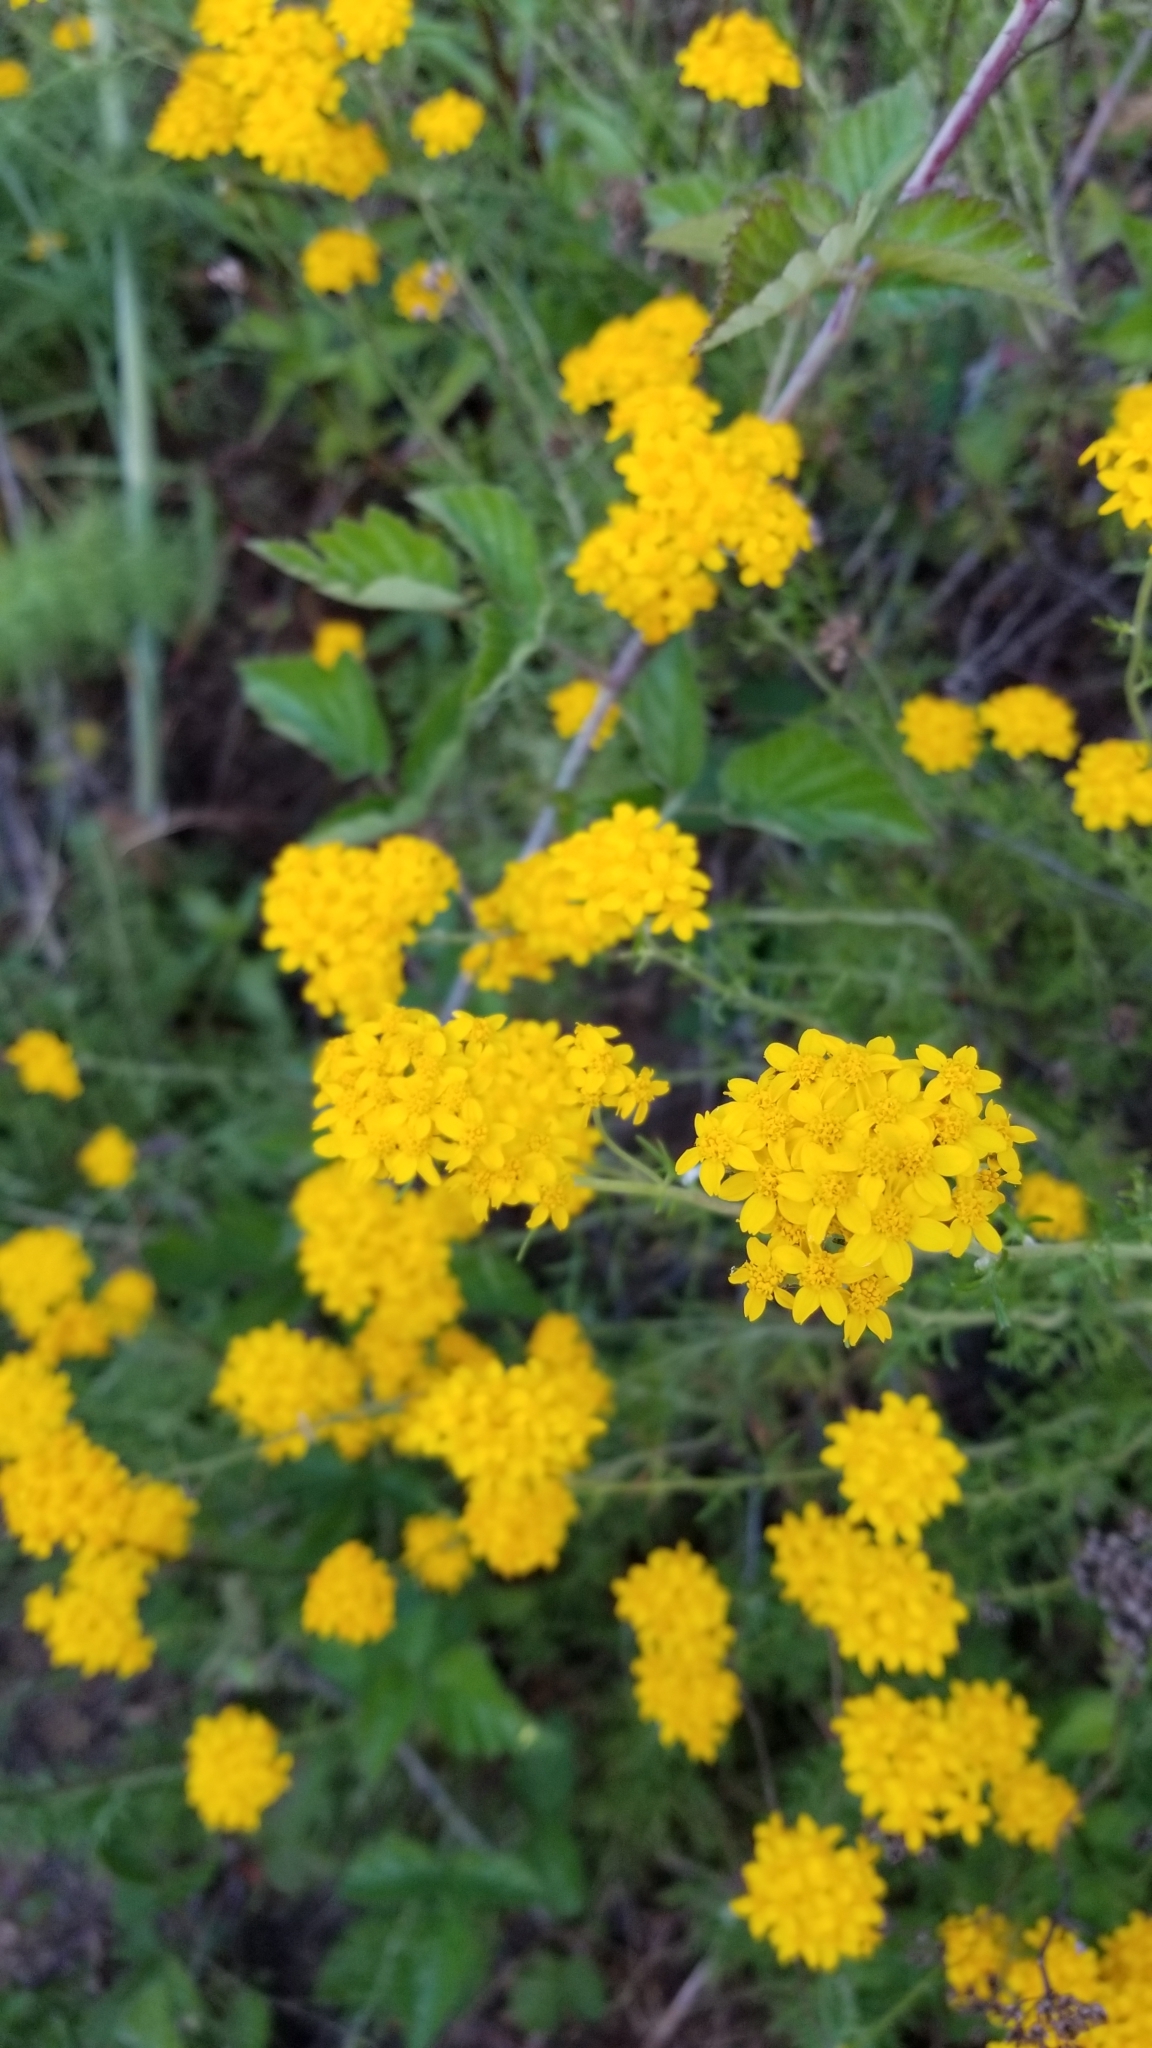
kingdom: Plantae
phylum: Tracheophyta
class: Magnoliopsida
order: Asterales
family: Asteraceae
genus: Eriophyllum
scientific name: Eriophyllum confertiflorum
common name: Golden-yarrow
